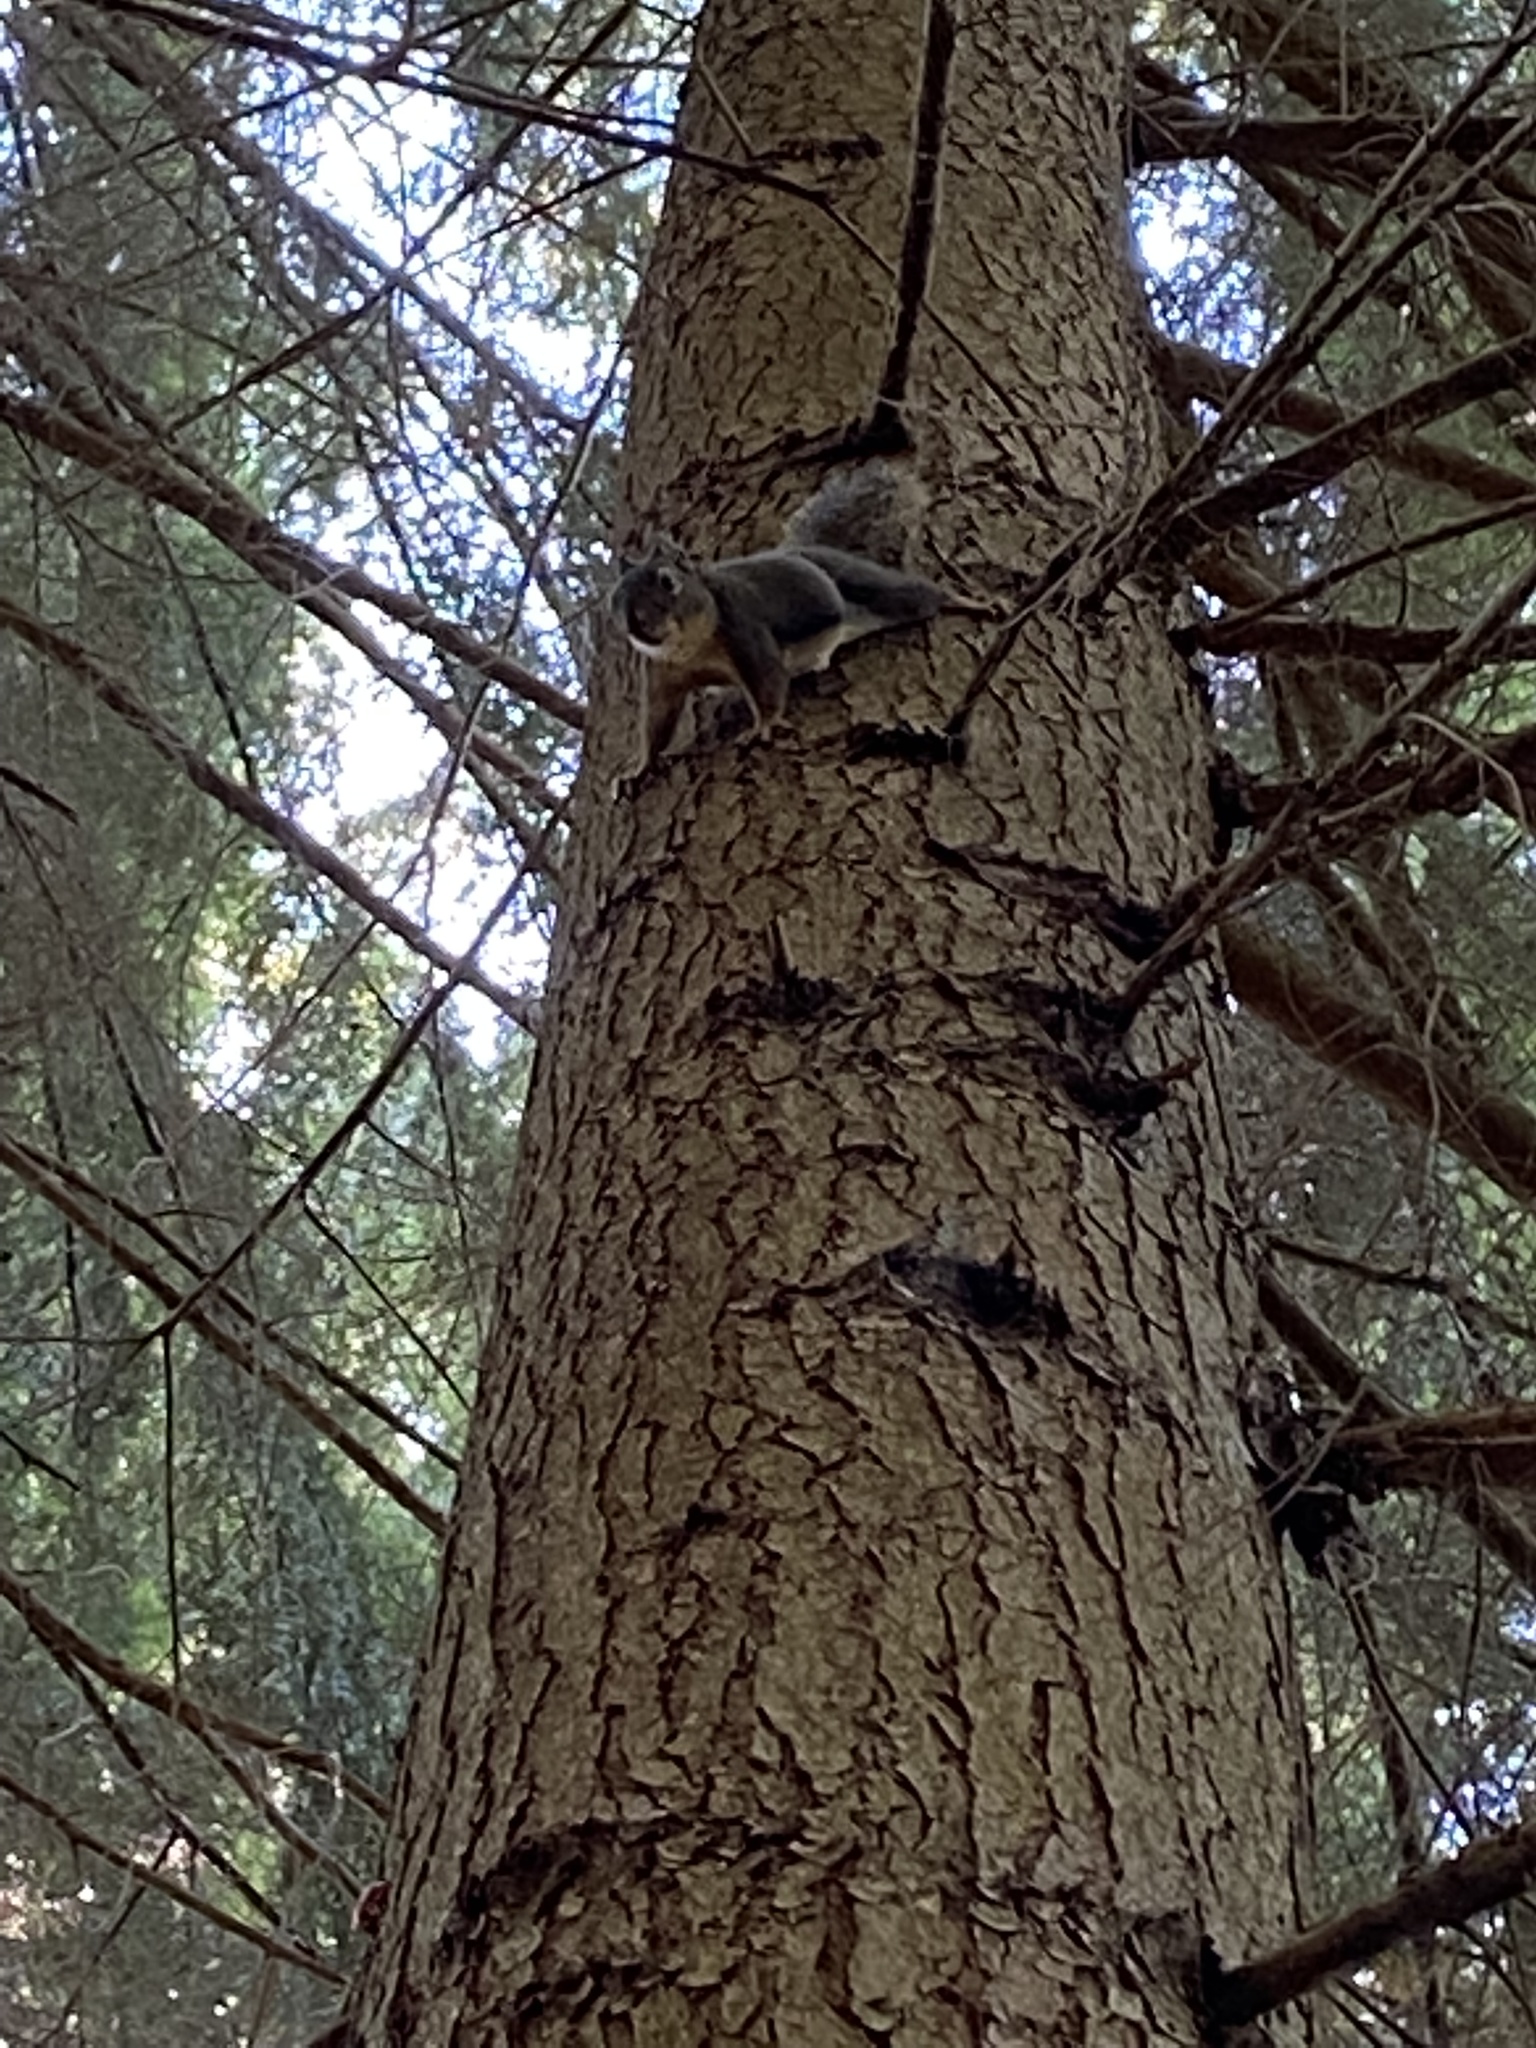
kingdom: Animalia
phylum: Chordata
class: Mammalia
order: Rodentia
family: Sciuridae
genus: Tamiasciurus
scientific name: Tamiasciurus douglasii
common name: Douglas's squirrel
